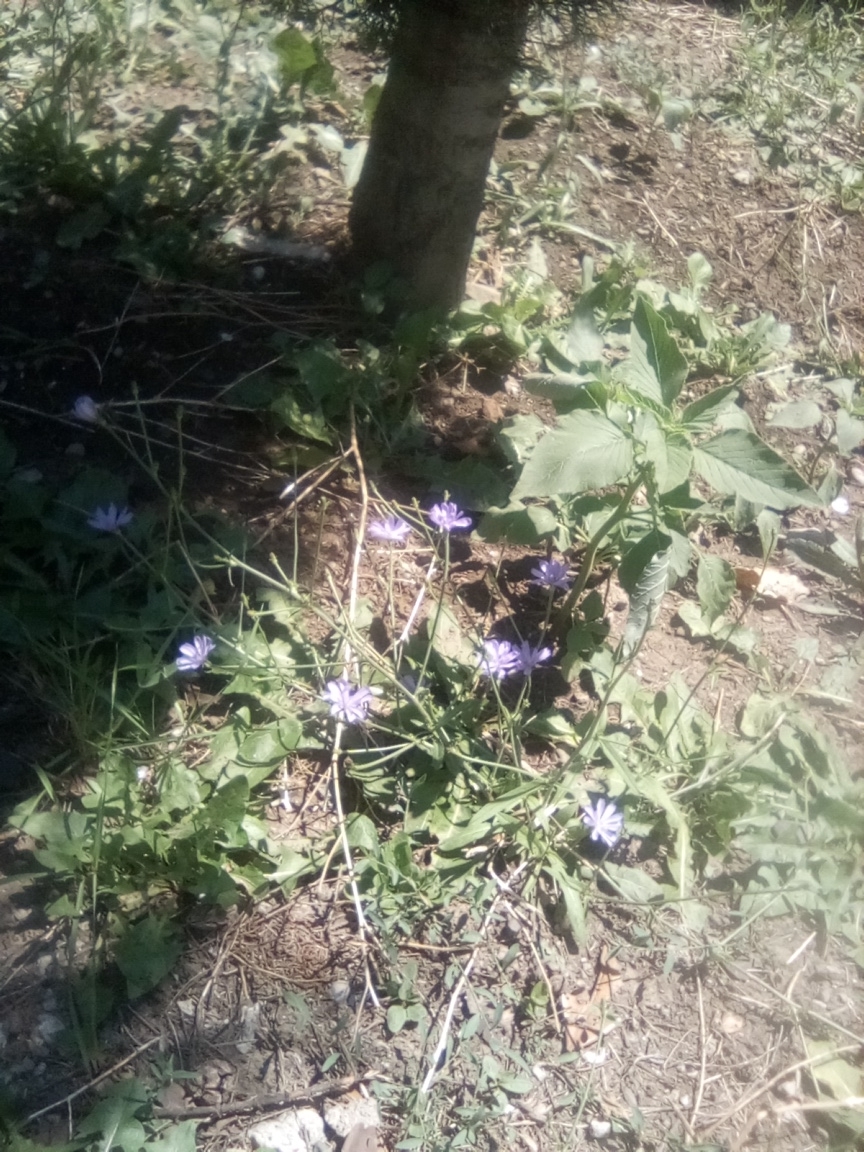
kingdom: Plantae
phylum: Tracheophyta
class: Magnoliopsida
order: Asterales
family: Asteraceae
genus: Cichorium
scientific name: Cichorium intybus
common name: Chicory
